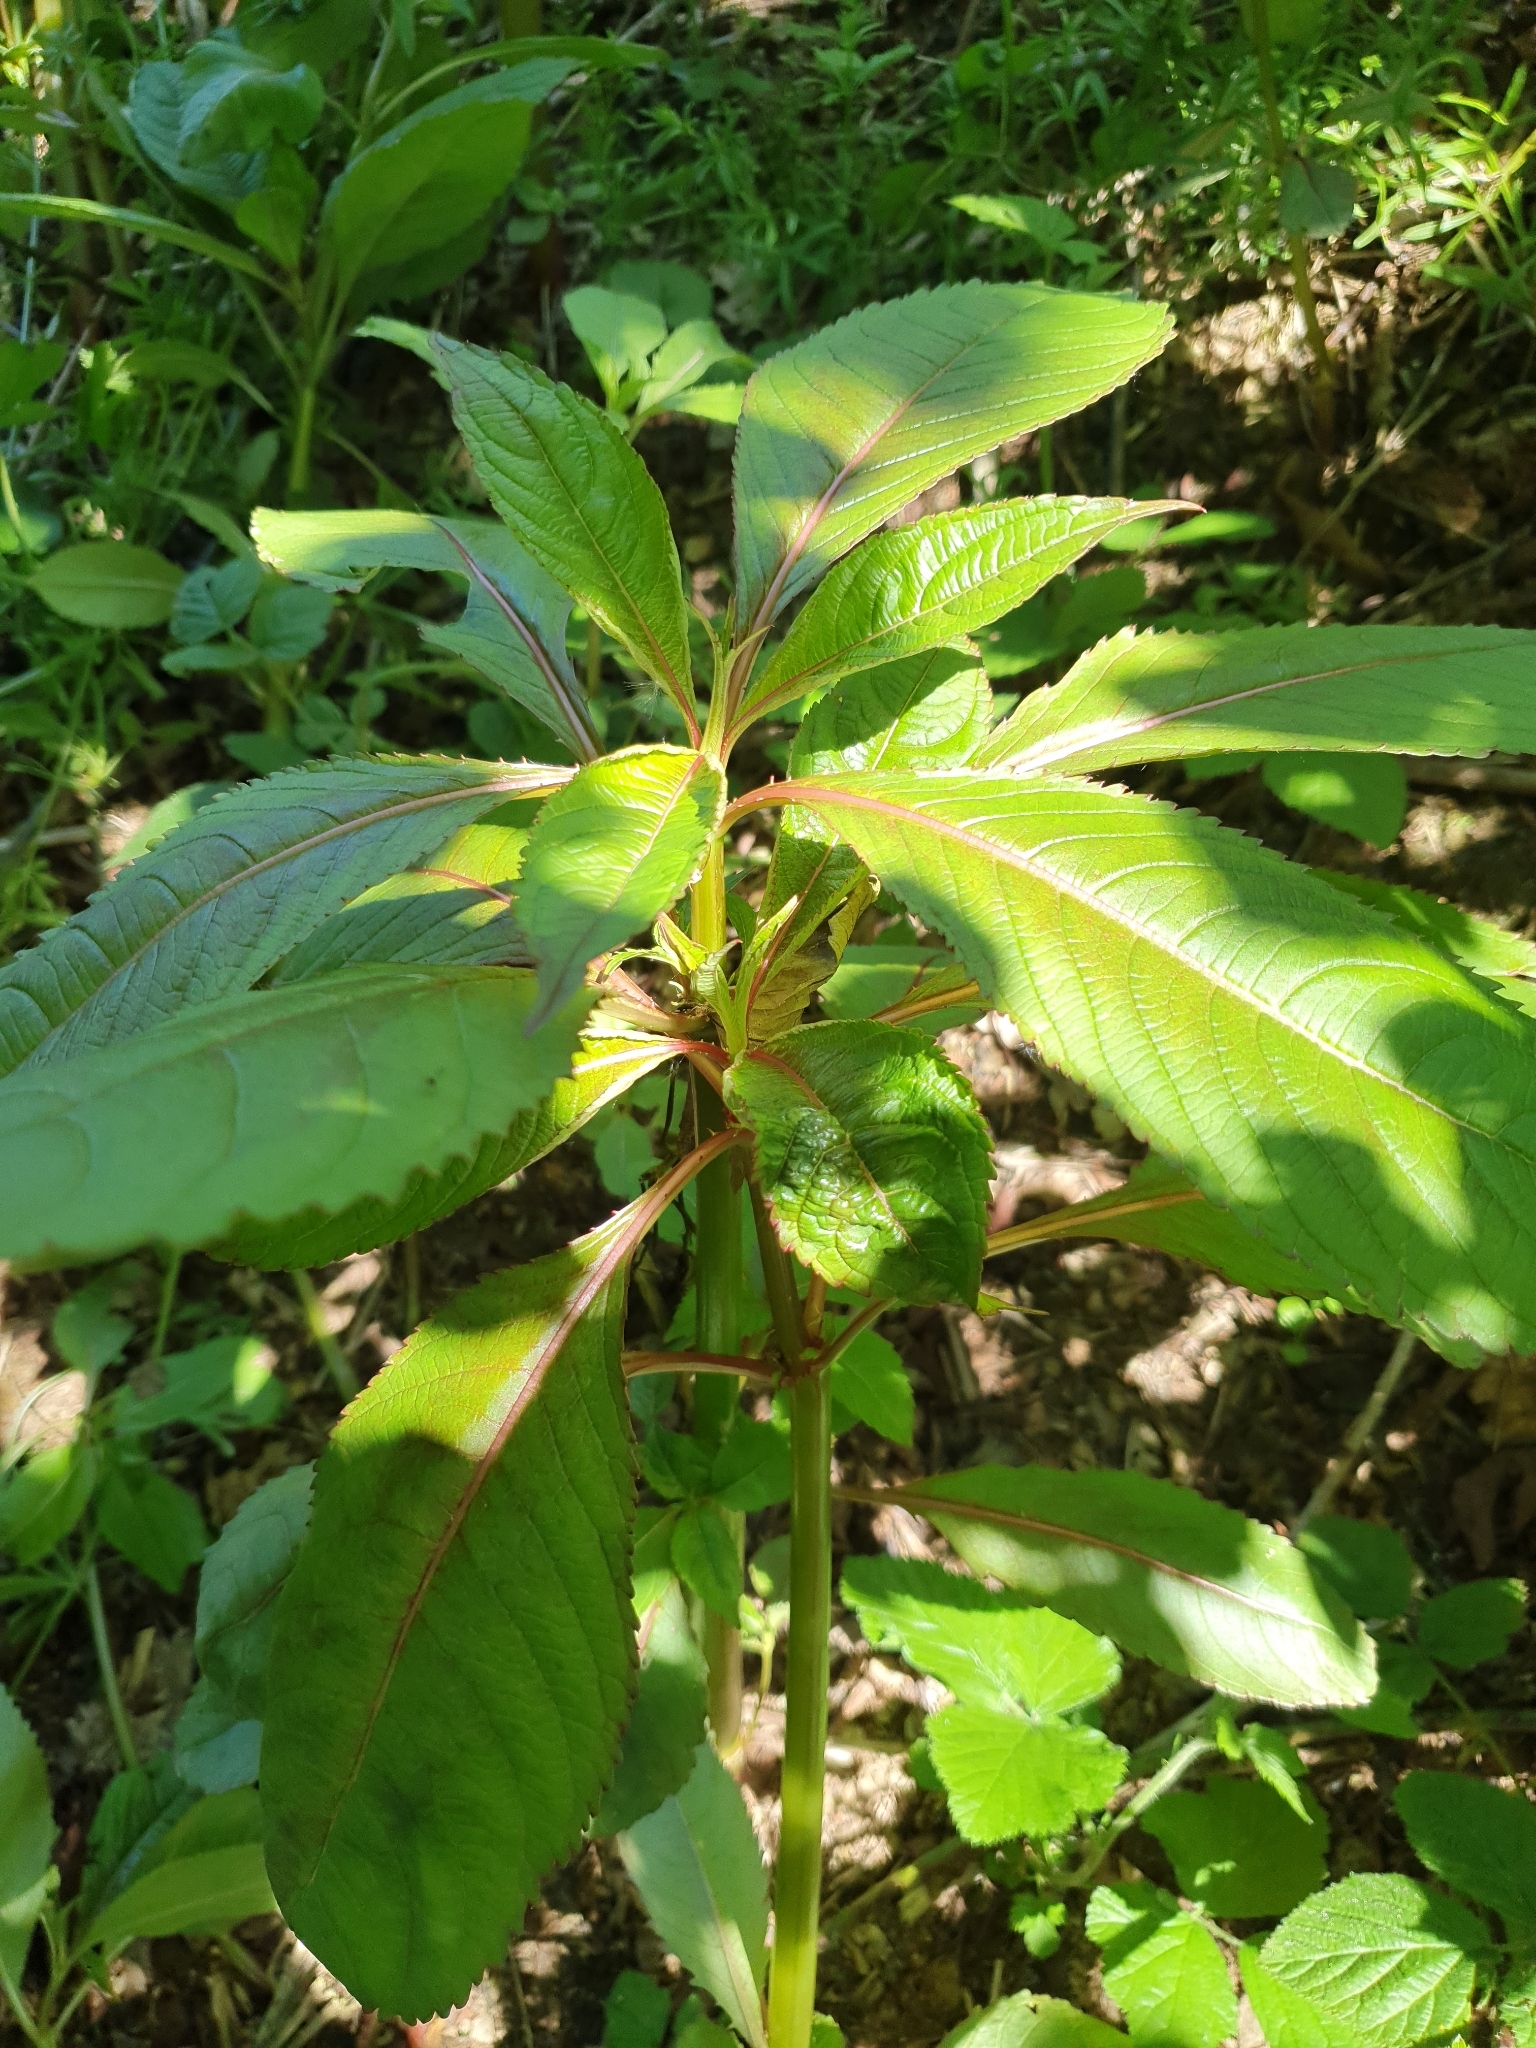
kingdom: Plantae
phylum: Tracheophyta
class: Magnoliopsida
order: Ericales
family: Balsaminaceae
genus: Impatiens
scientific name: Impatiens glandulifera
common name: Himalayan balsam
